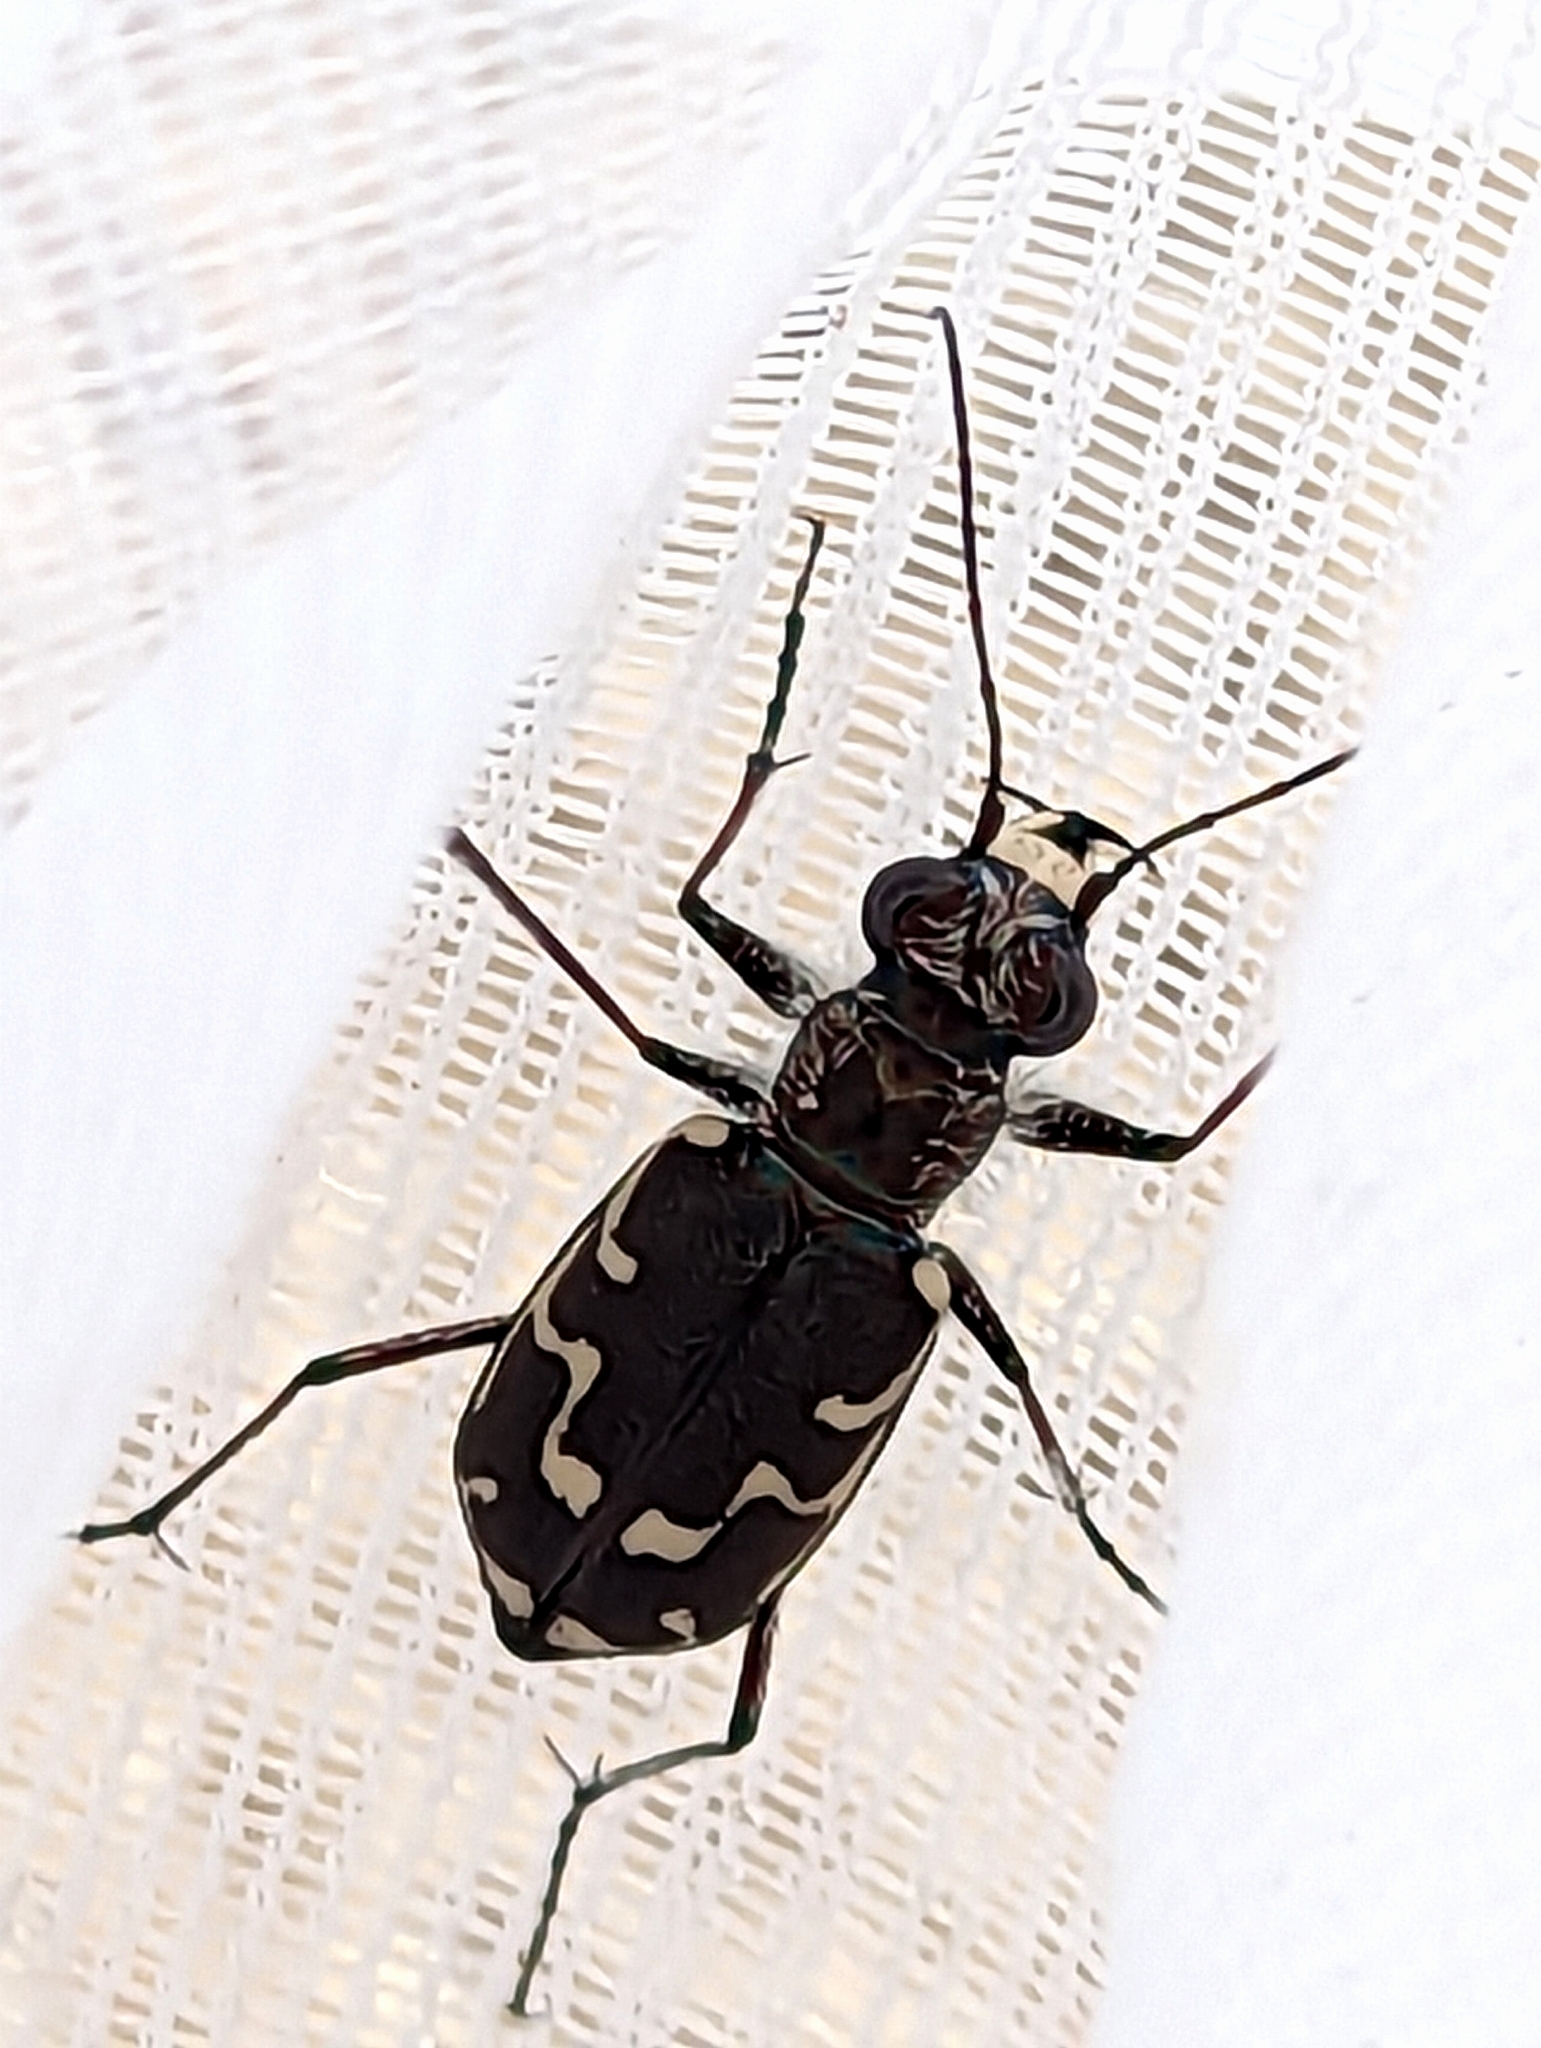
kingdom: Animalia
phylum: Arthropoda
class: Insecta
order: Coleoptera
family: Carabidae
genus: Cicindela
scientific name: Cicindela repanda
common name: Bronzed tiger beetle
